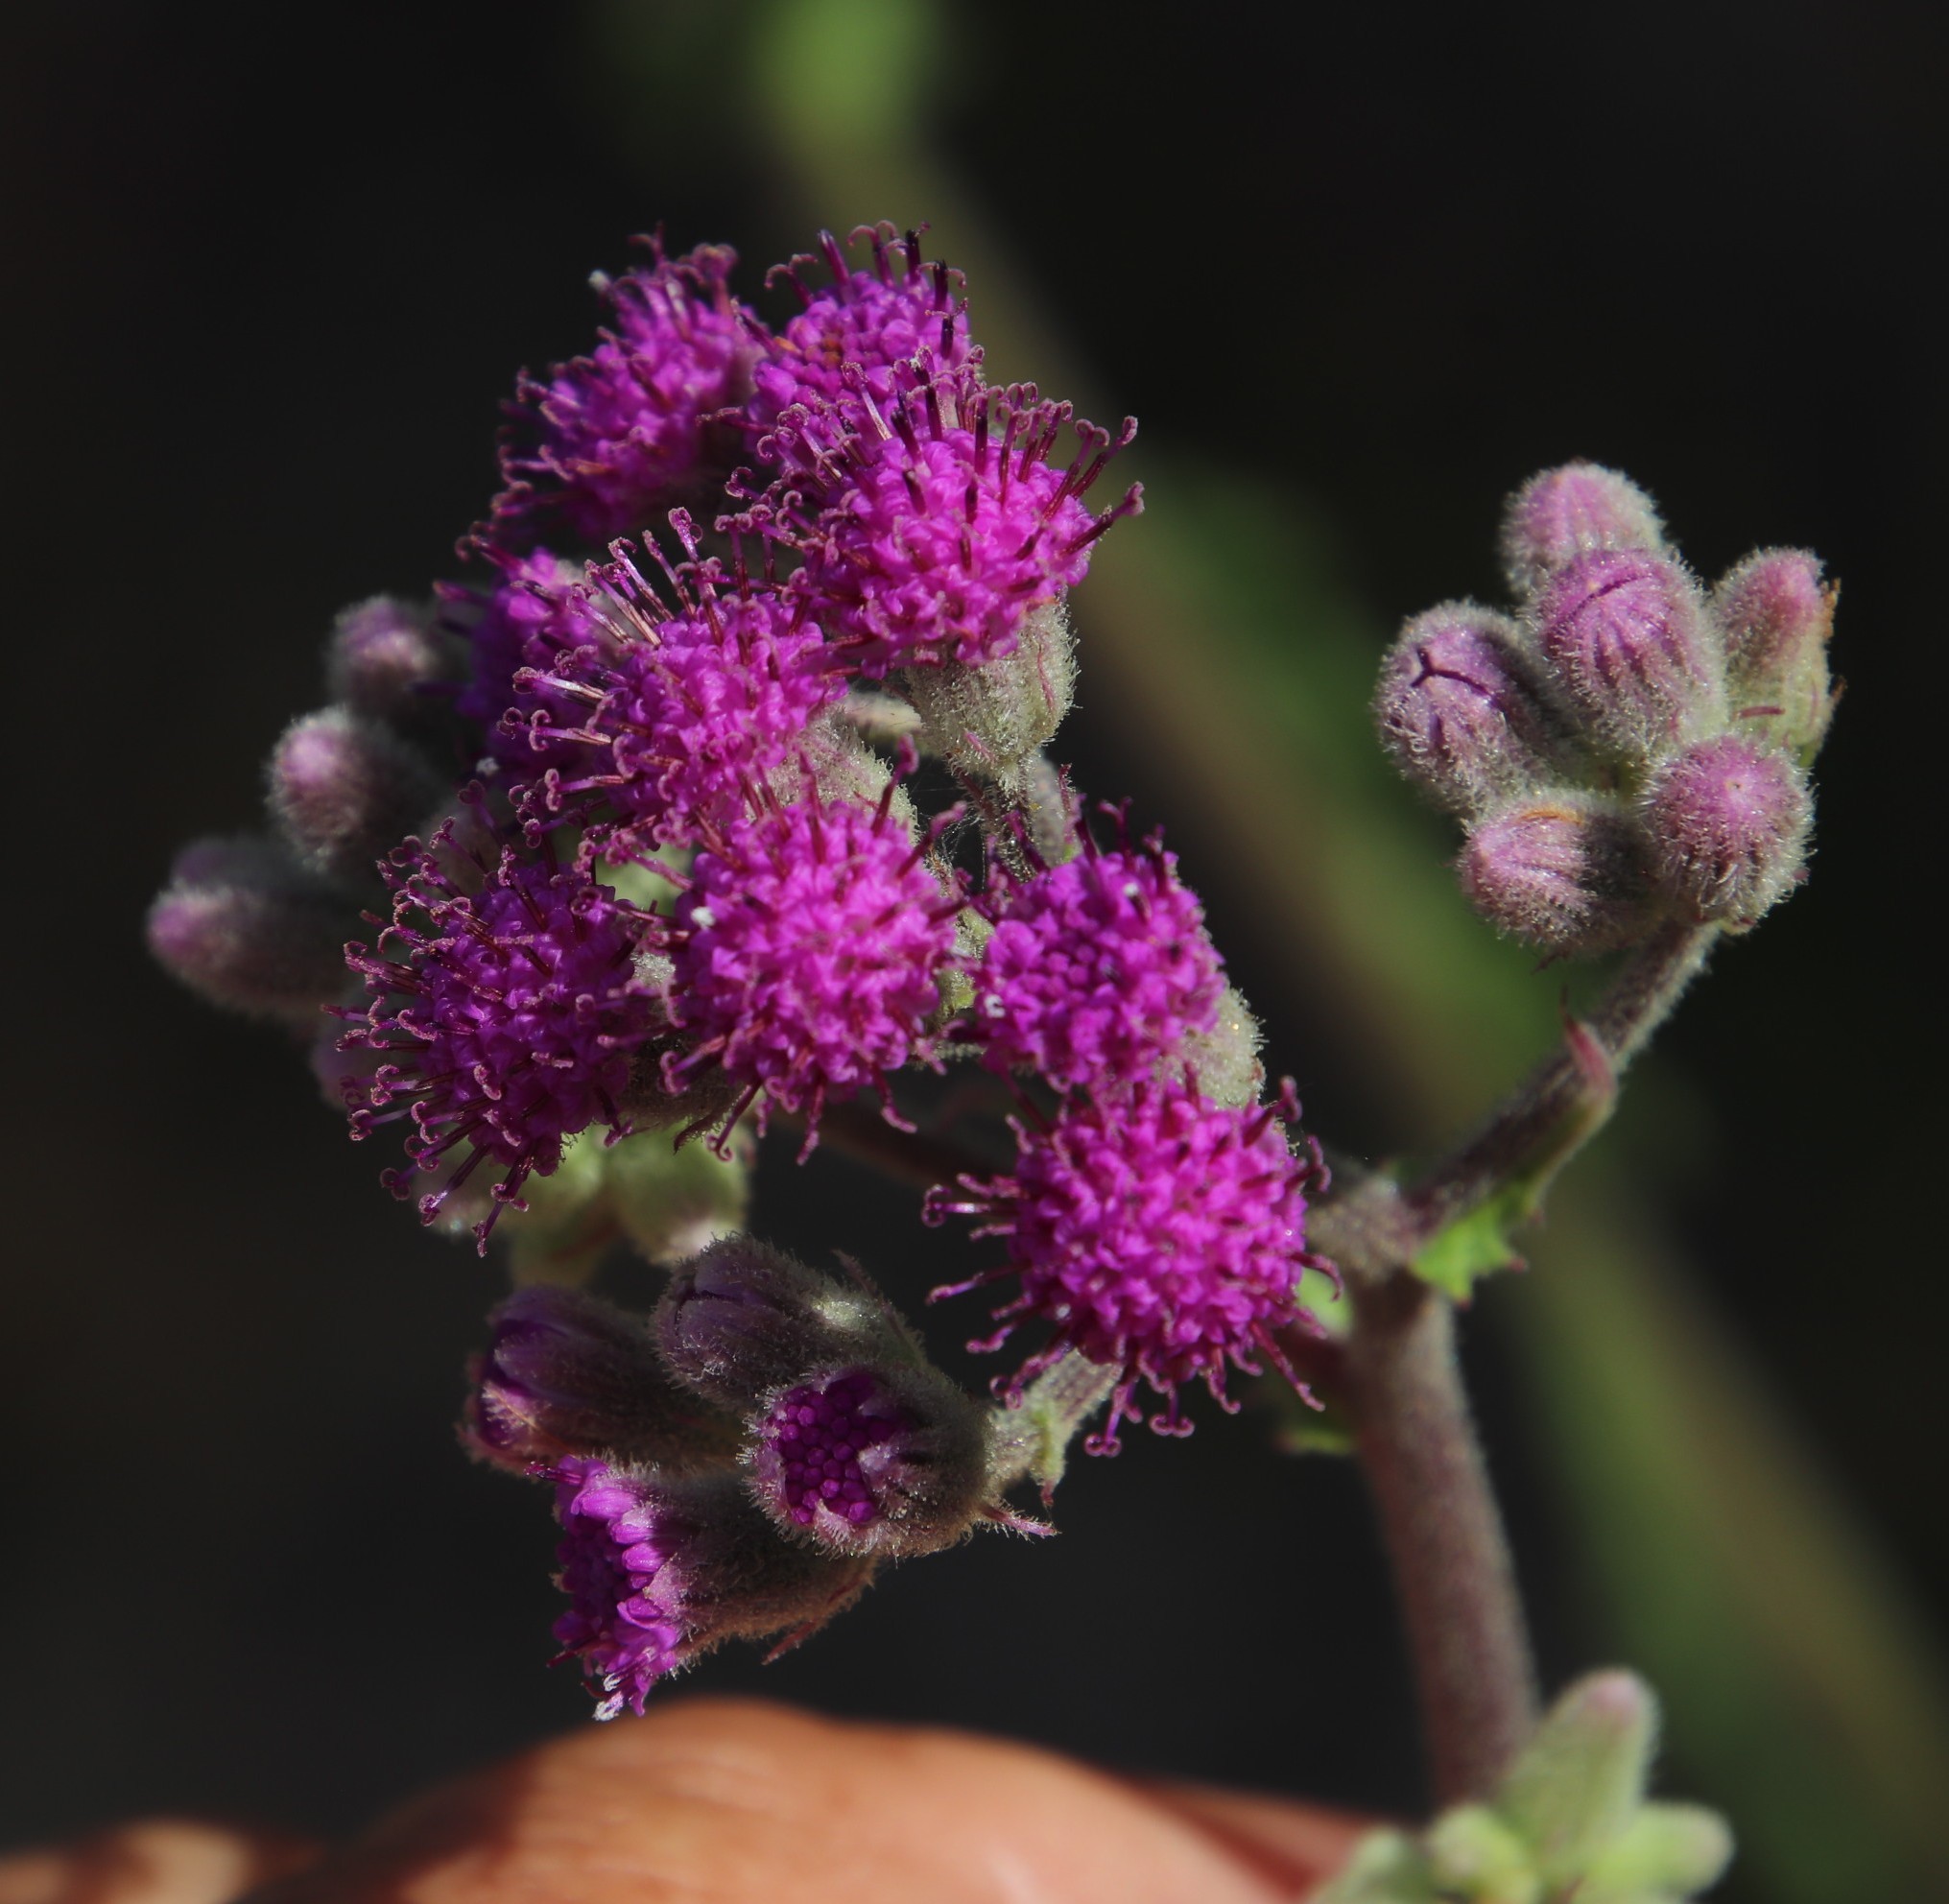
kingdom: Plantae
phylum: Tracheophyta
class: Magnoliopsida
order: Asterales
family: Asteraceae
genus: Senecio
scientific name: Senecio purpureus
